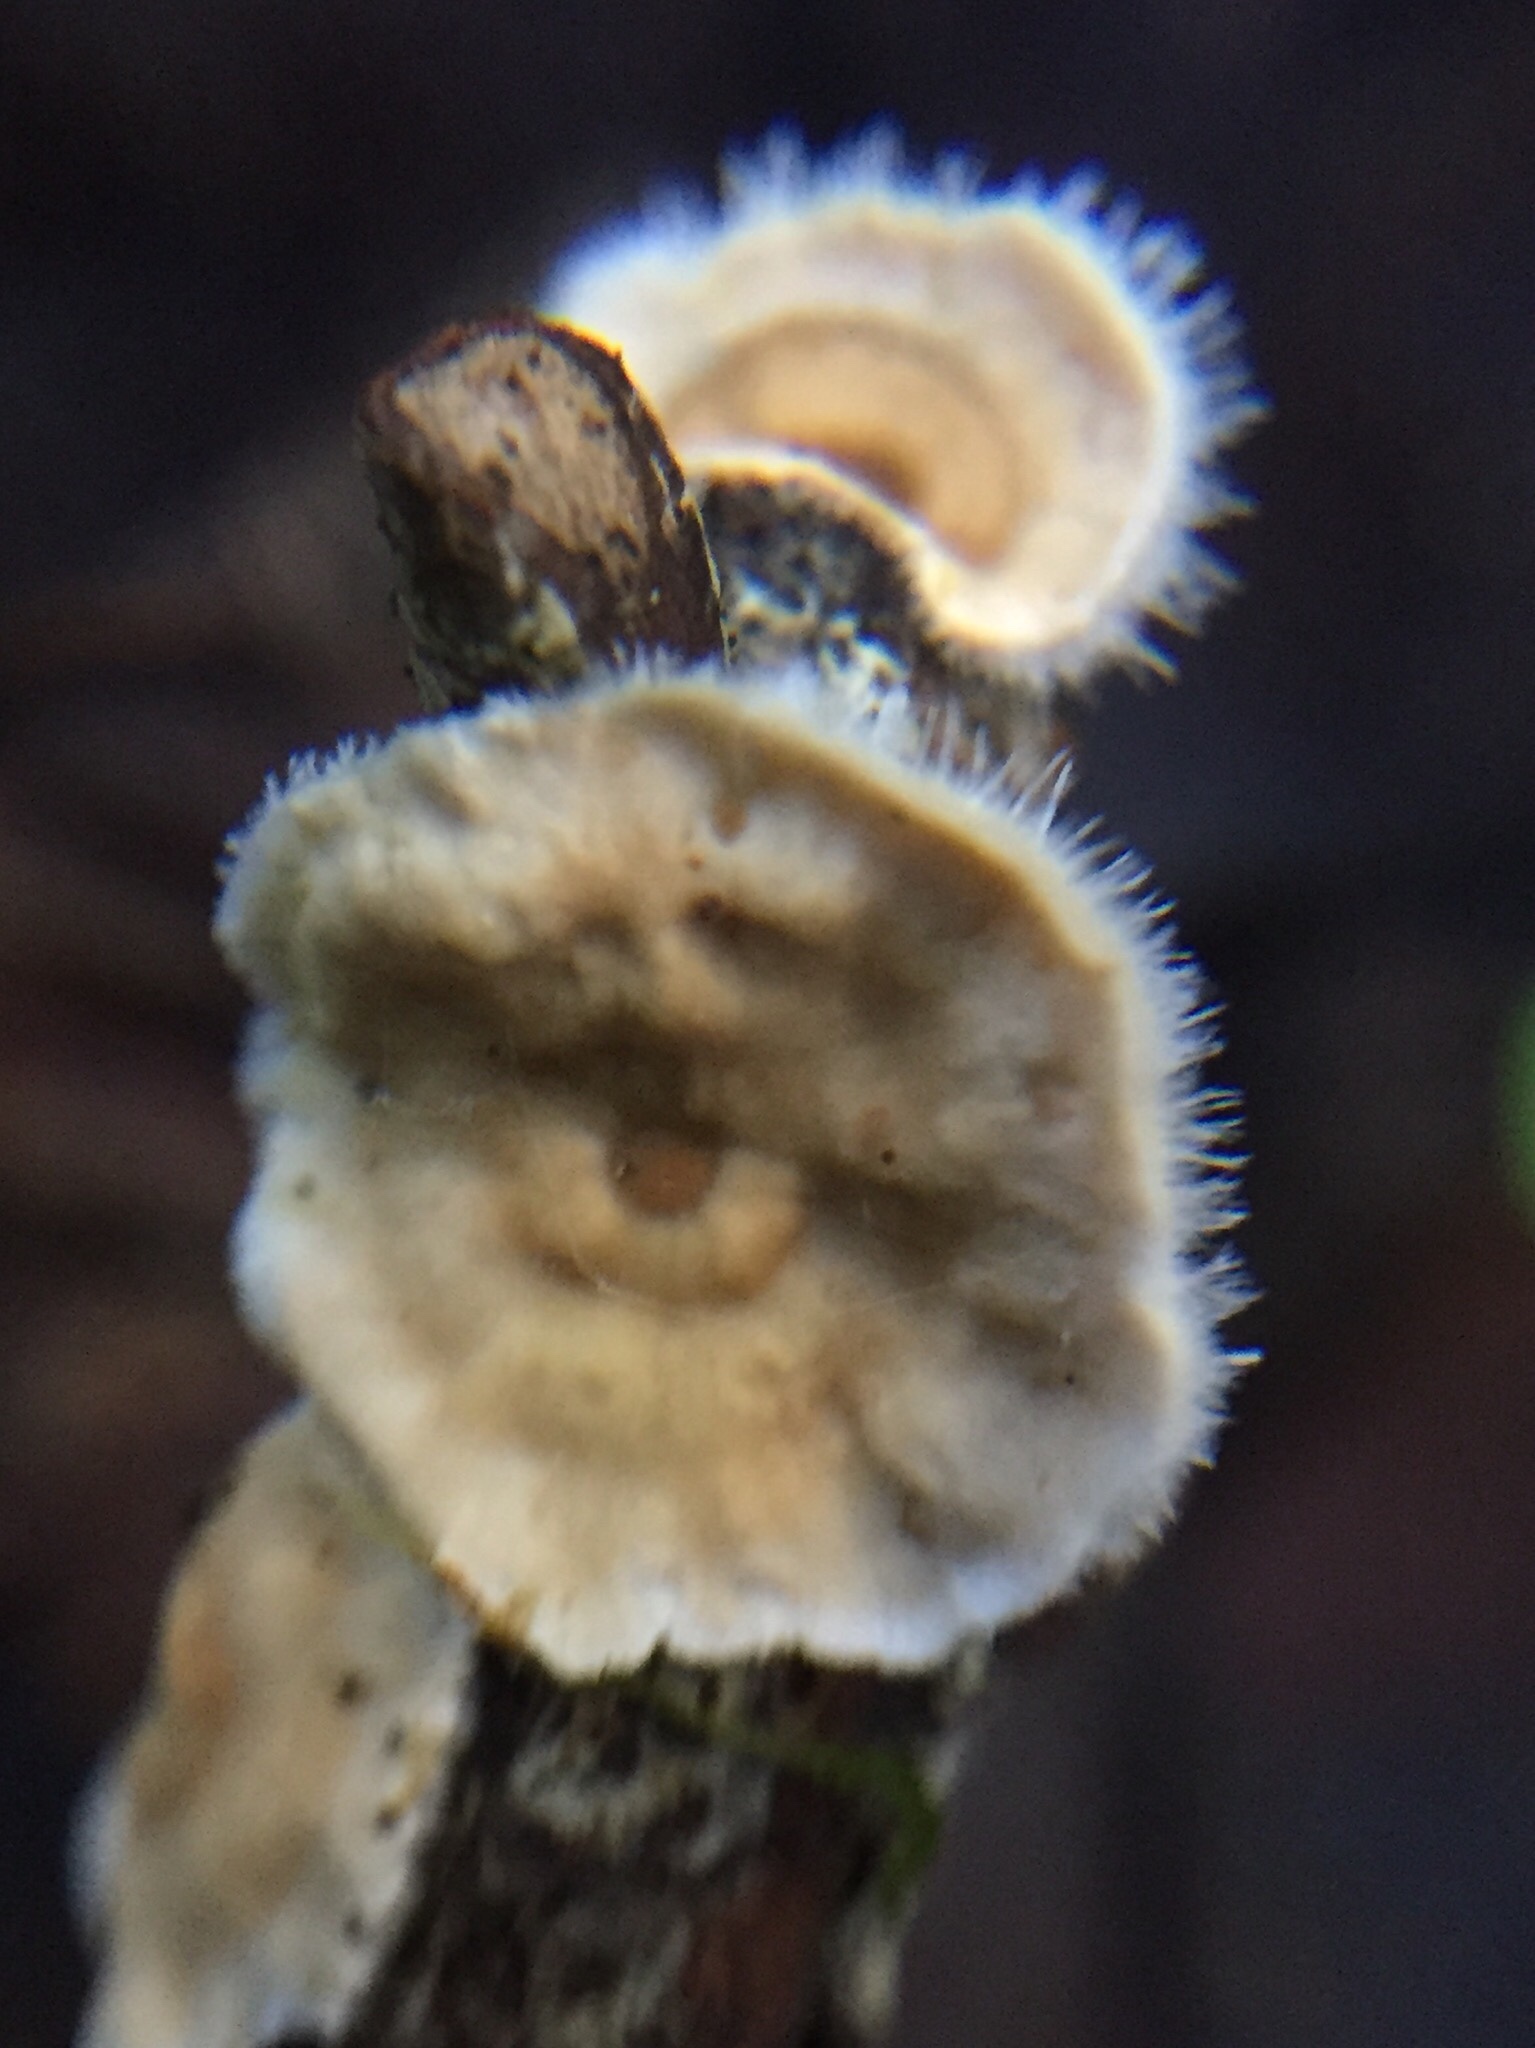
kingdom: Fungi
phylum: Basidiomycota
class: Agaricomycetes
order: Russulales
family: Stereaceae
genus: Stereum
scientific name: Stereum ochraceoflavum
